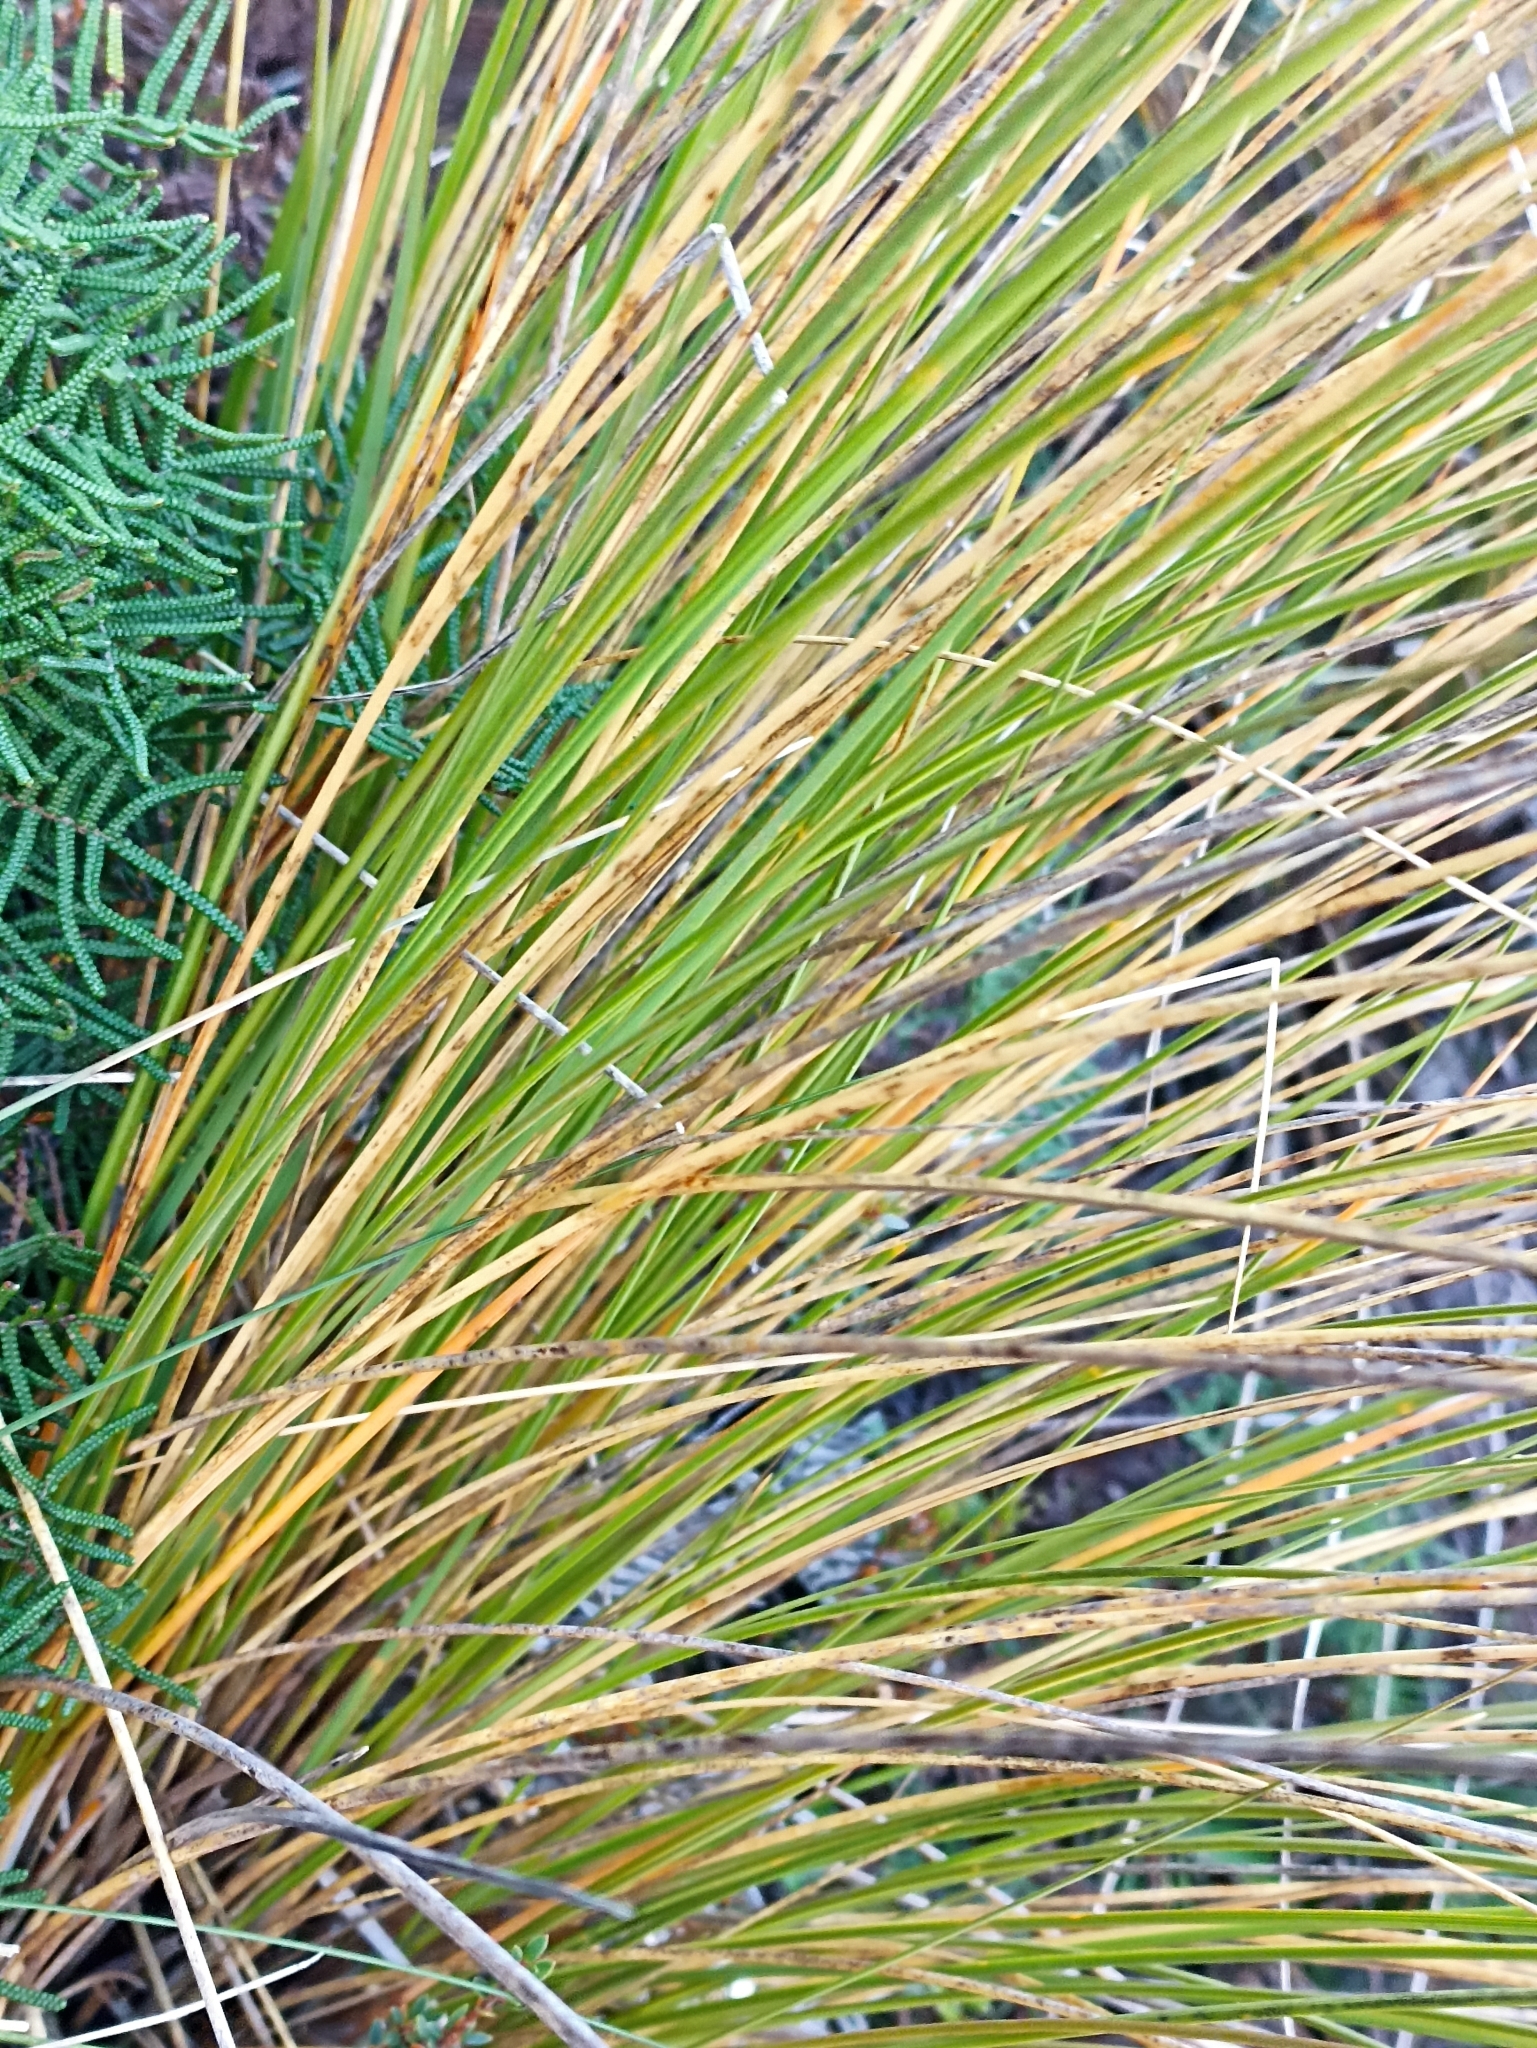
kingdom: Plantae
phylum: Tracheophyta
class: Liliopsida
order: Poales
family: Poaceae
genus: Chionochloa
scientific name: Chionochloa rubra
